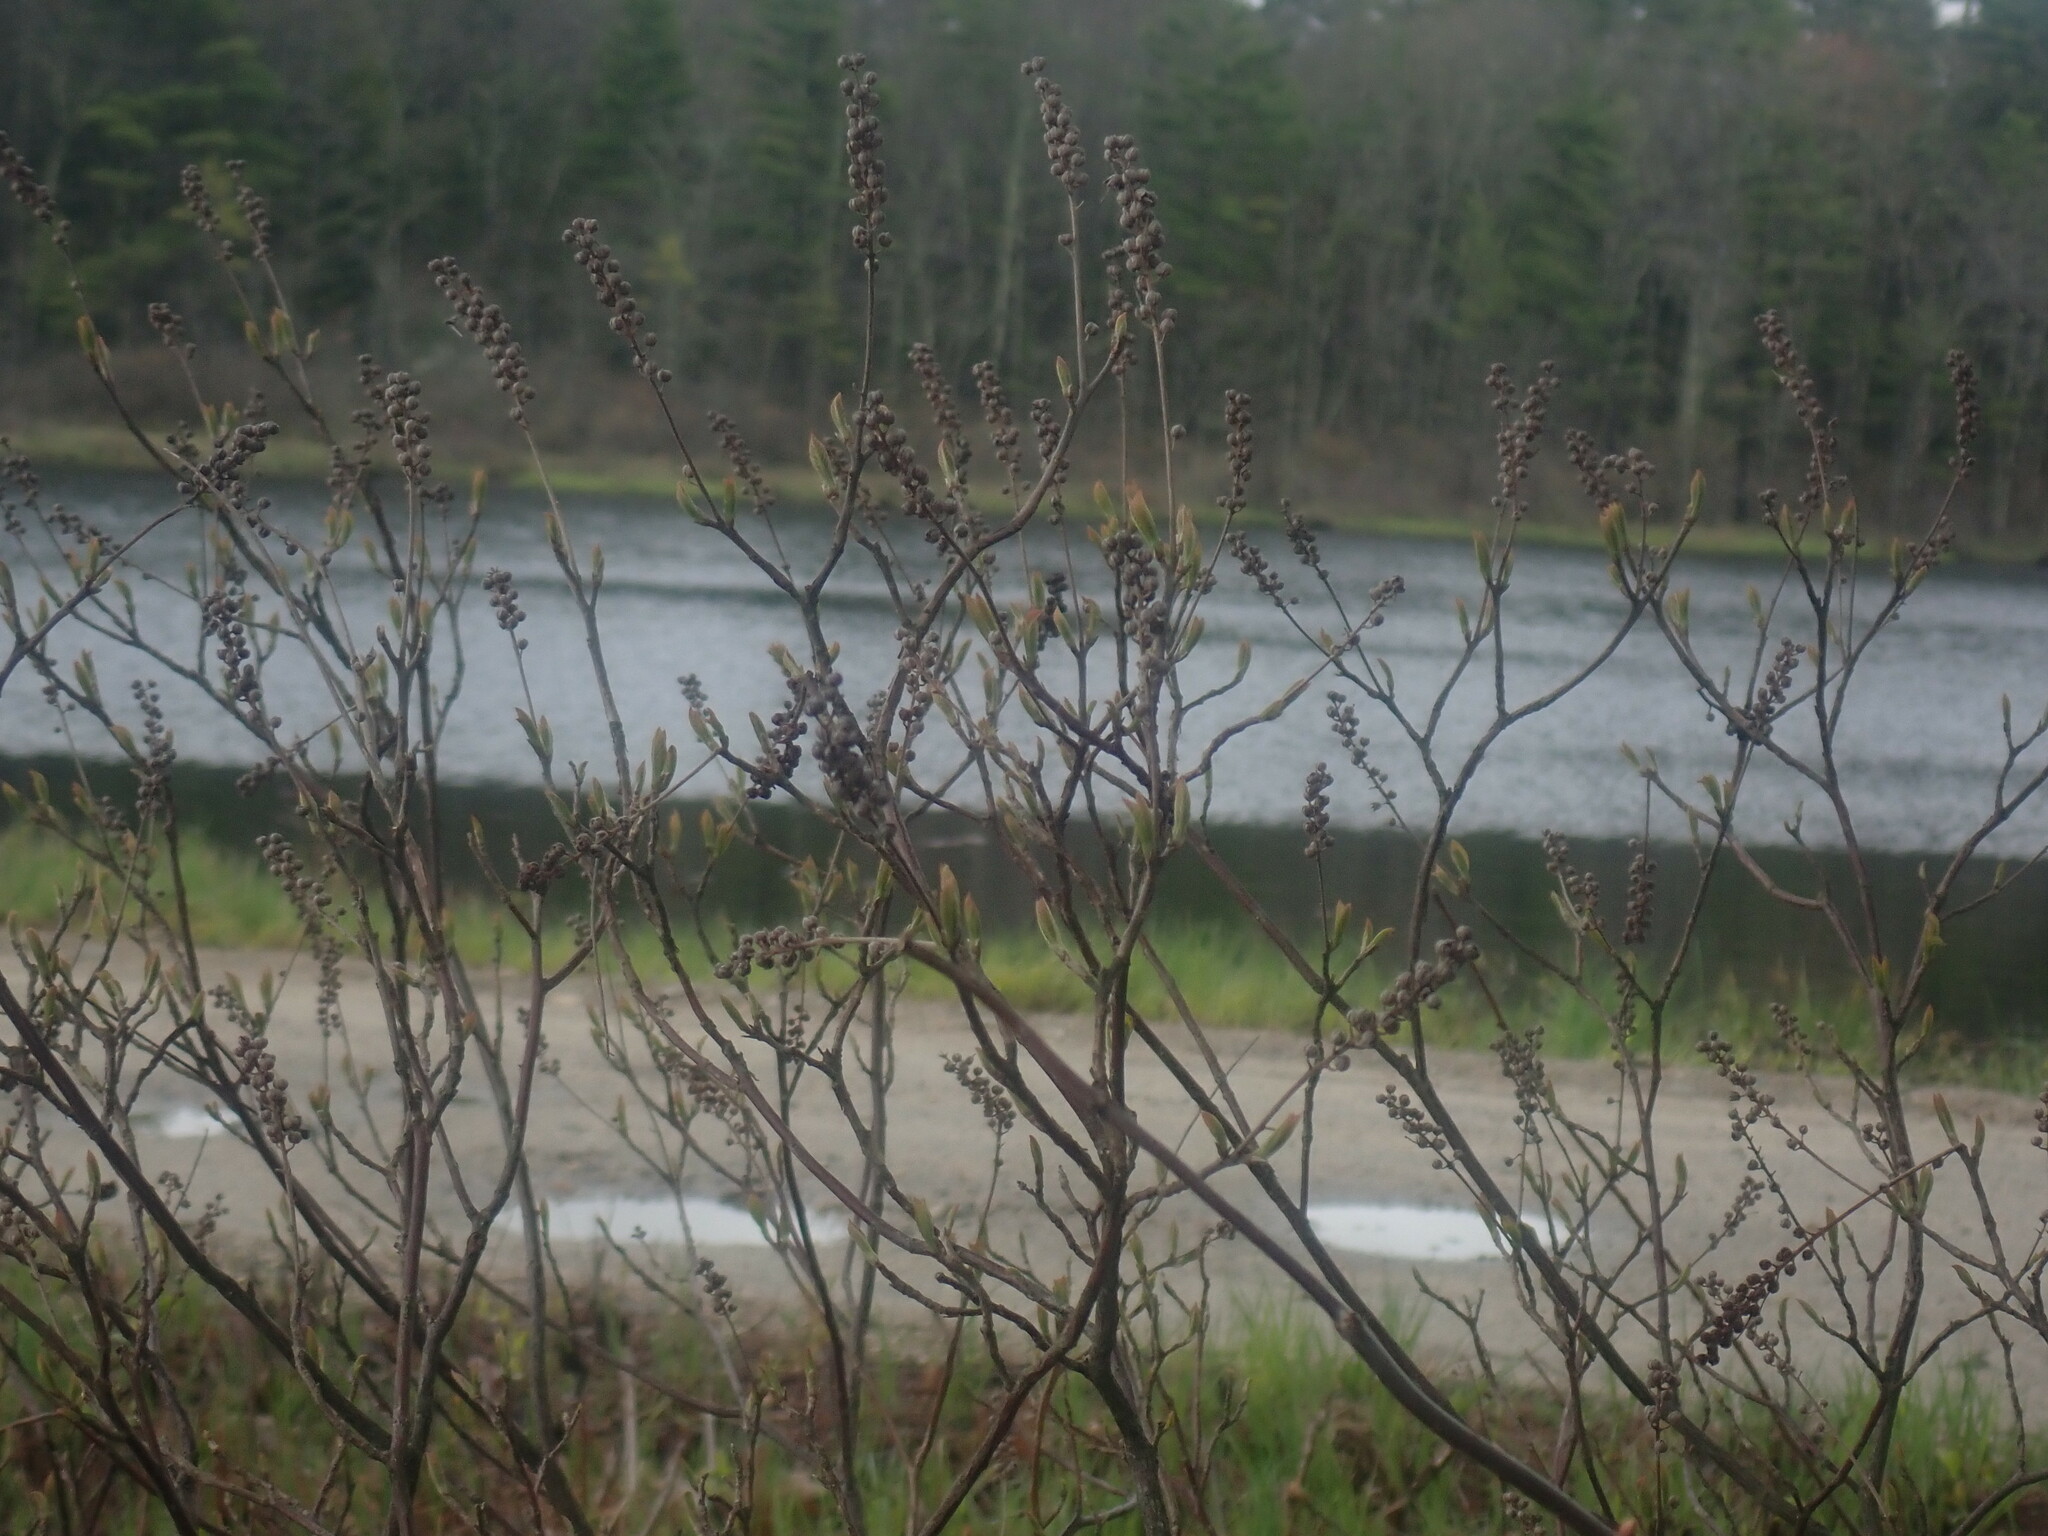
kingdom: Plantae
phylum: Tracheophyta
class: Magnoliopsida
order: Ericales
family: Clethraceae
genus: Clethra
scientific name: Clethra alnifolia
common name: Sweet pepperbush
